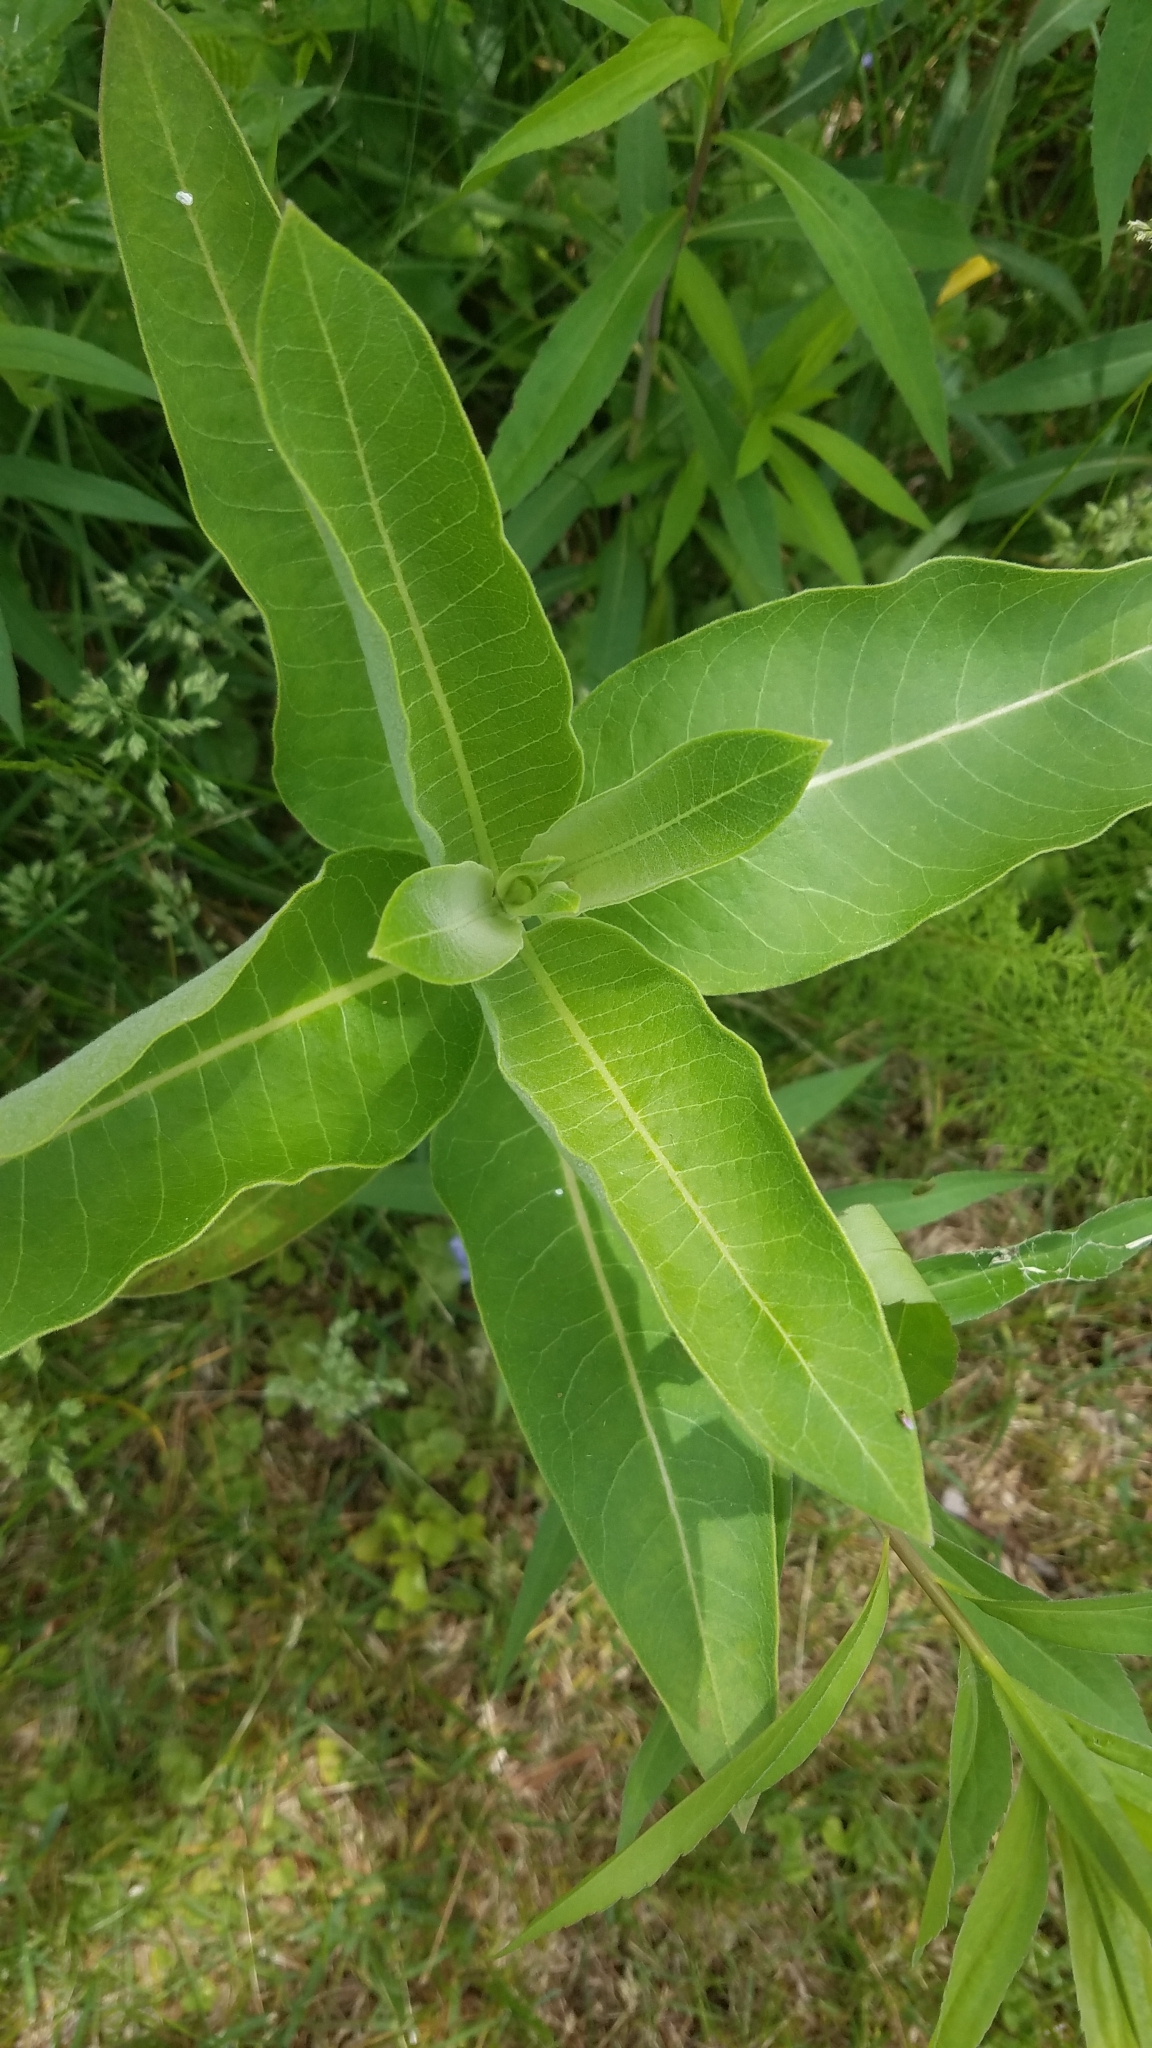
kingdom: Plantae
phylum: Tracheophyta
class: Magnoliopsida
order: Gentianales
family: Apocynaceae
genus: Asclepias
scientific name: Asclepias syriaca
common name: Common milkweed
